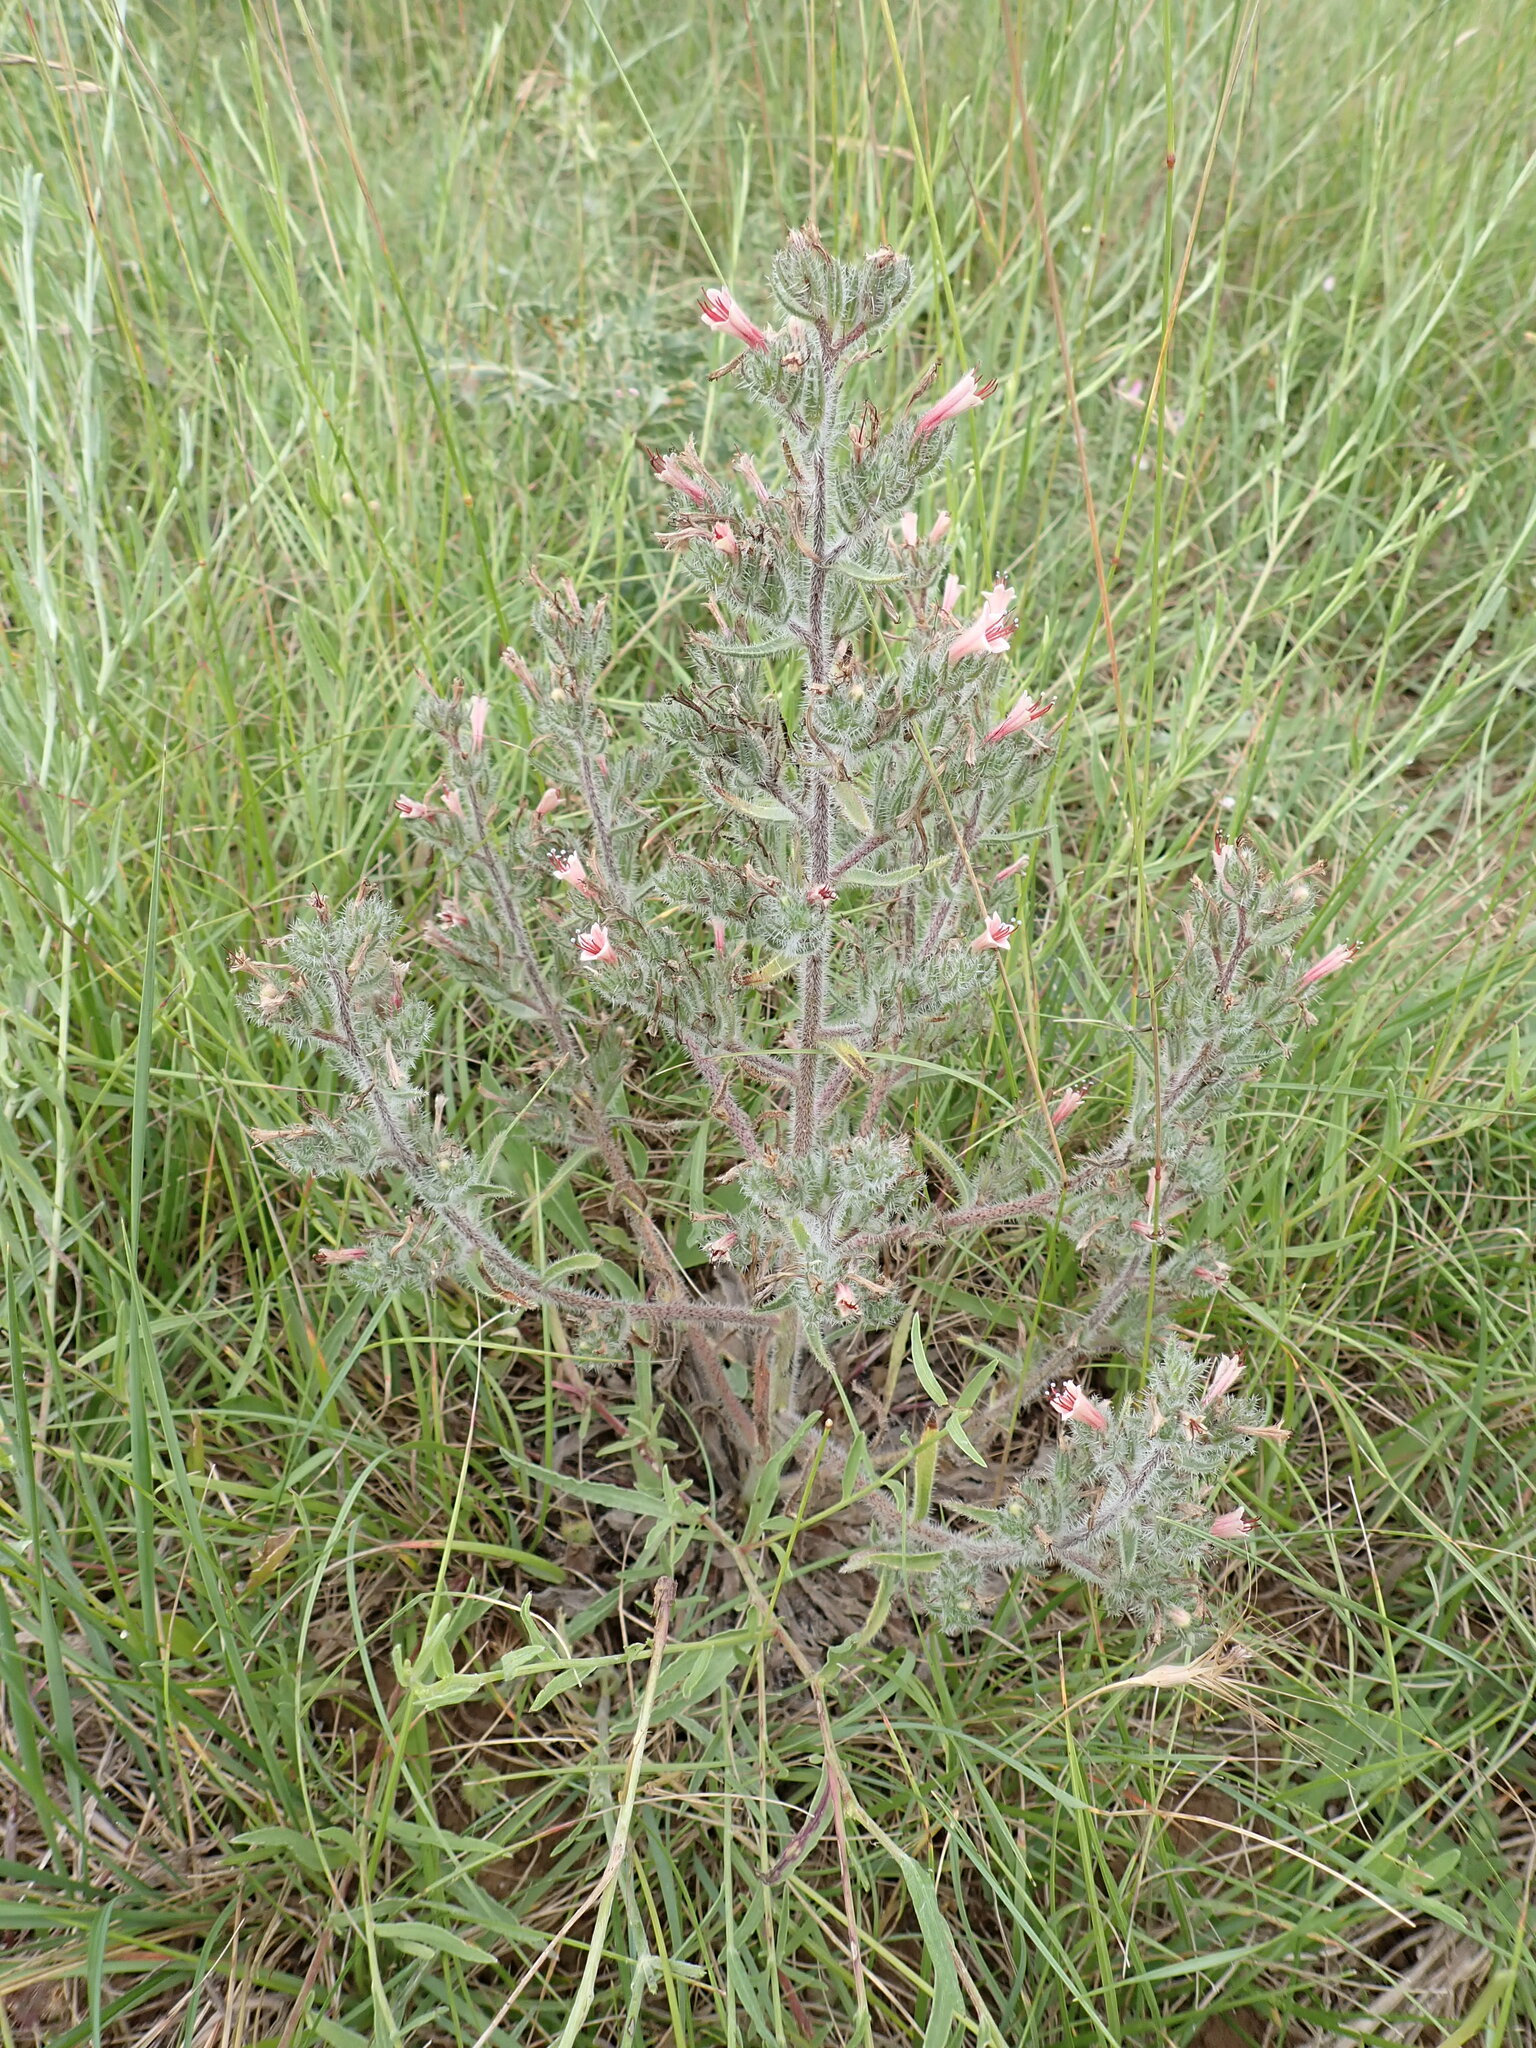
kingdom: Plantae
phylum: Tracheophyta
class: Magnoliopsida
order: Boraginales
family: Boraginaceae
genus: Echium
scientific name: Echium asperrimum
